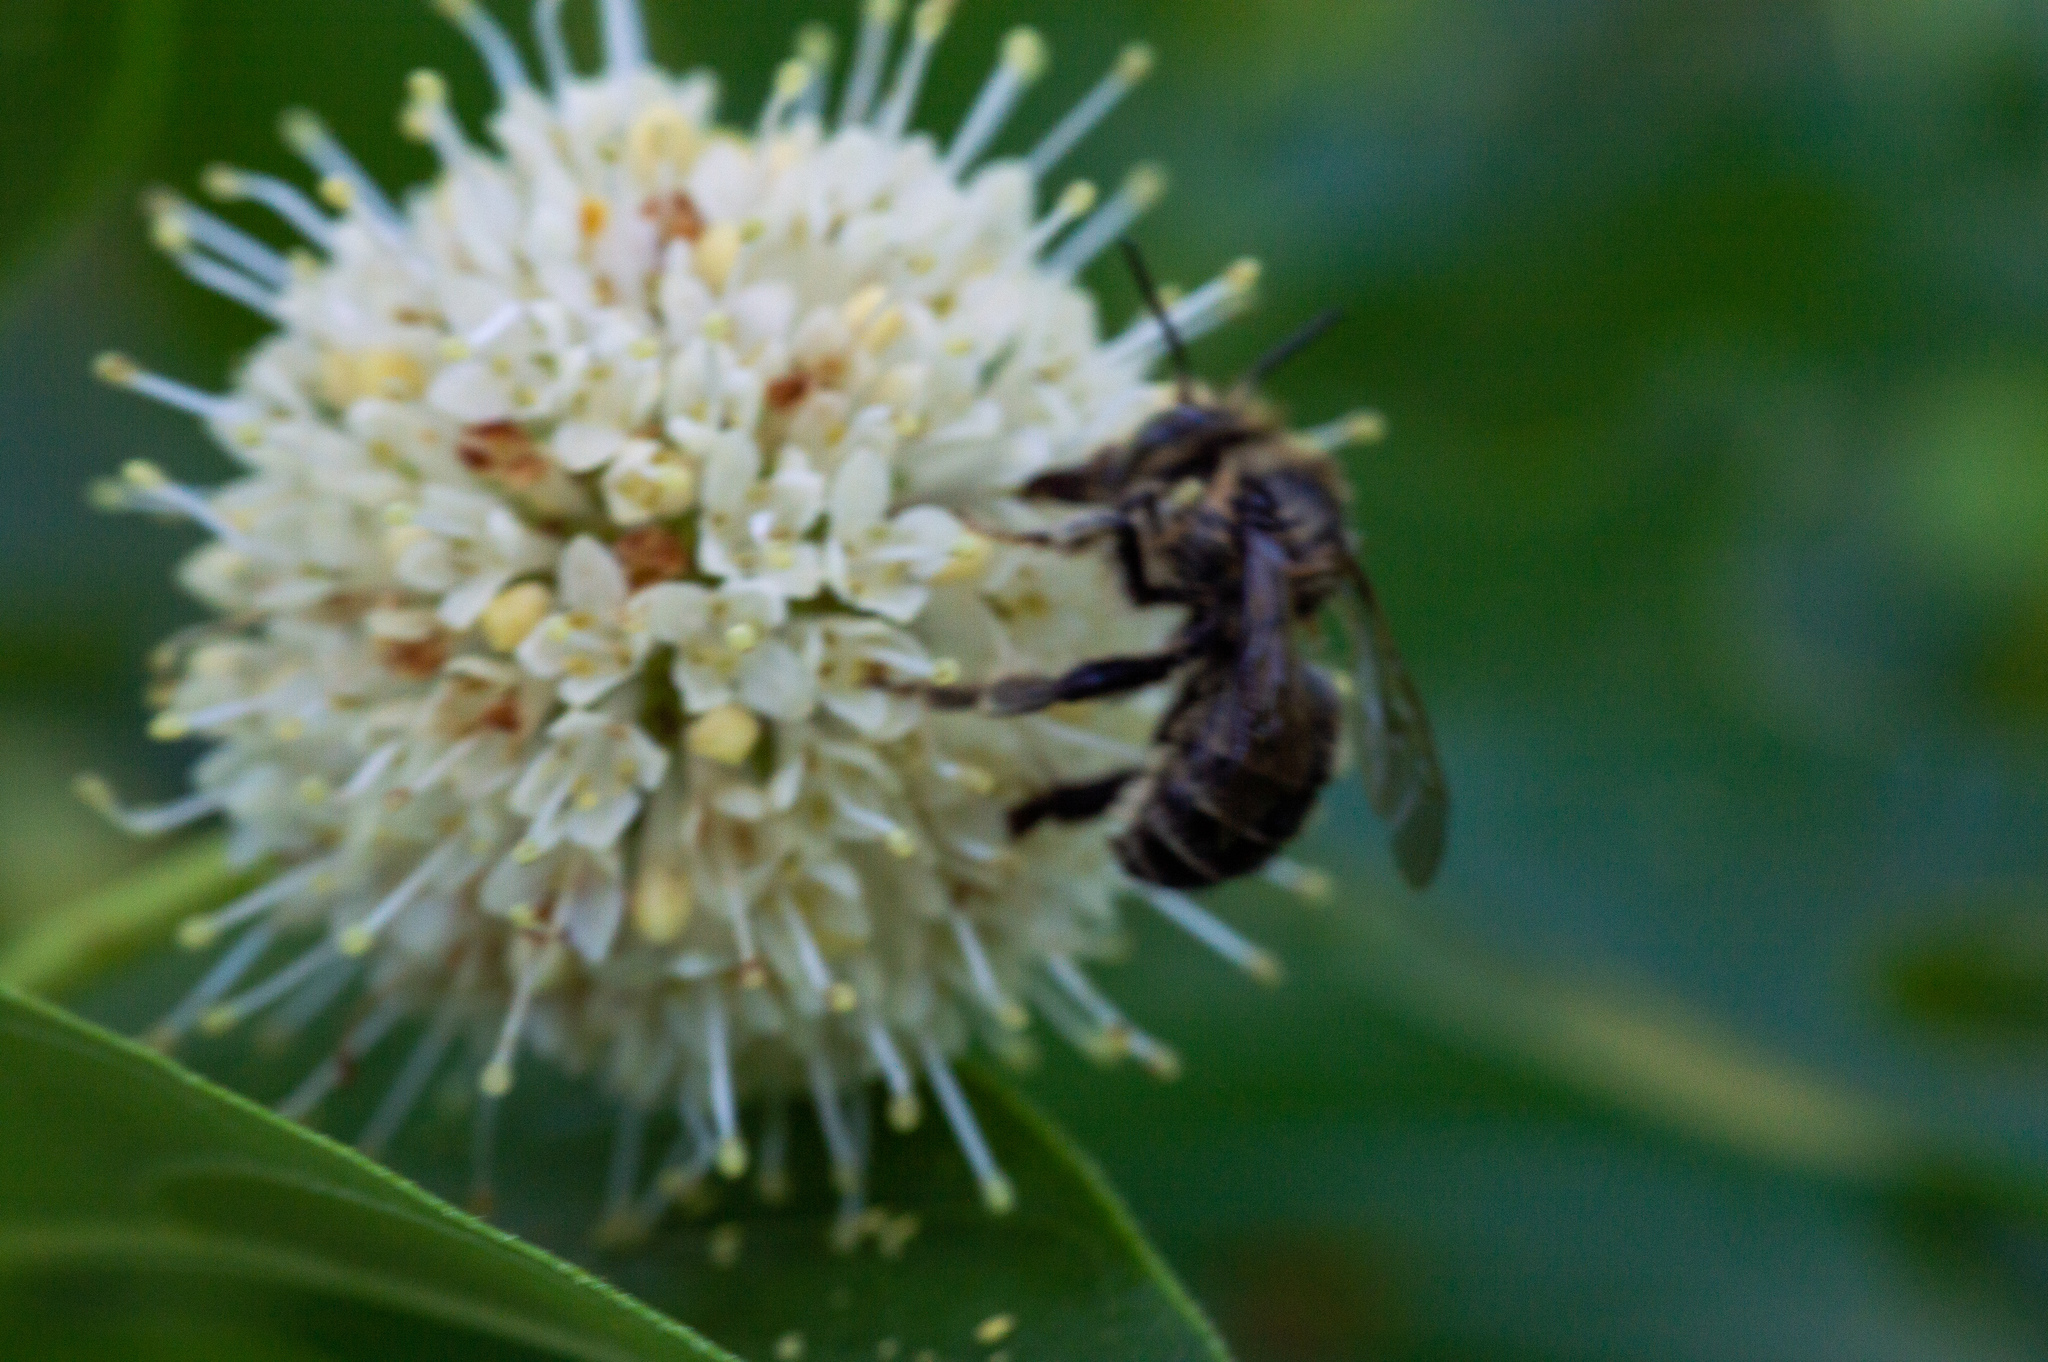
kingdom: Animalia
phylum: Arthropoda
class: Insecta
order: Hymenoptera
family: Apidae
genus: Anthophora
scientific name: Anthophora terminalis
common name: Orange-tipped wood-digger bee
